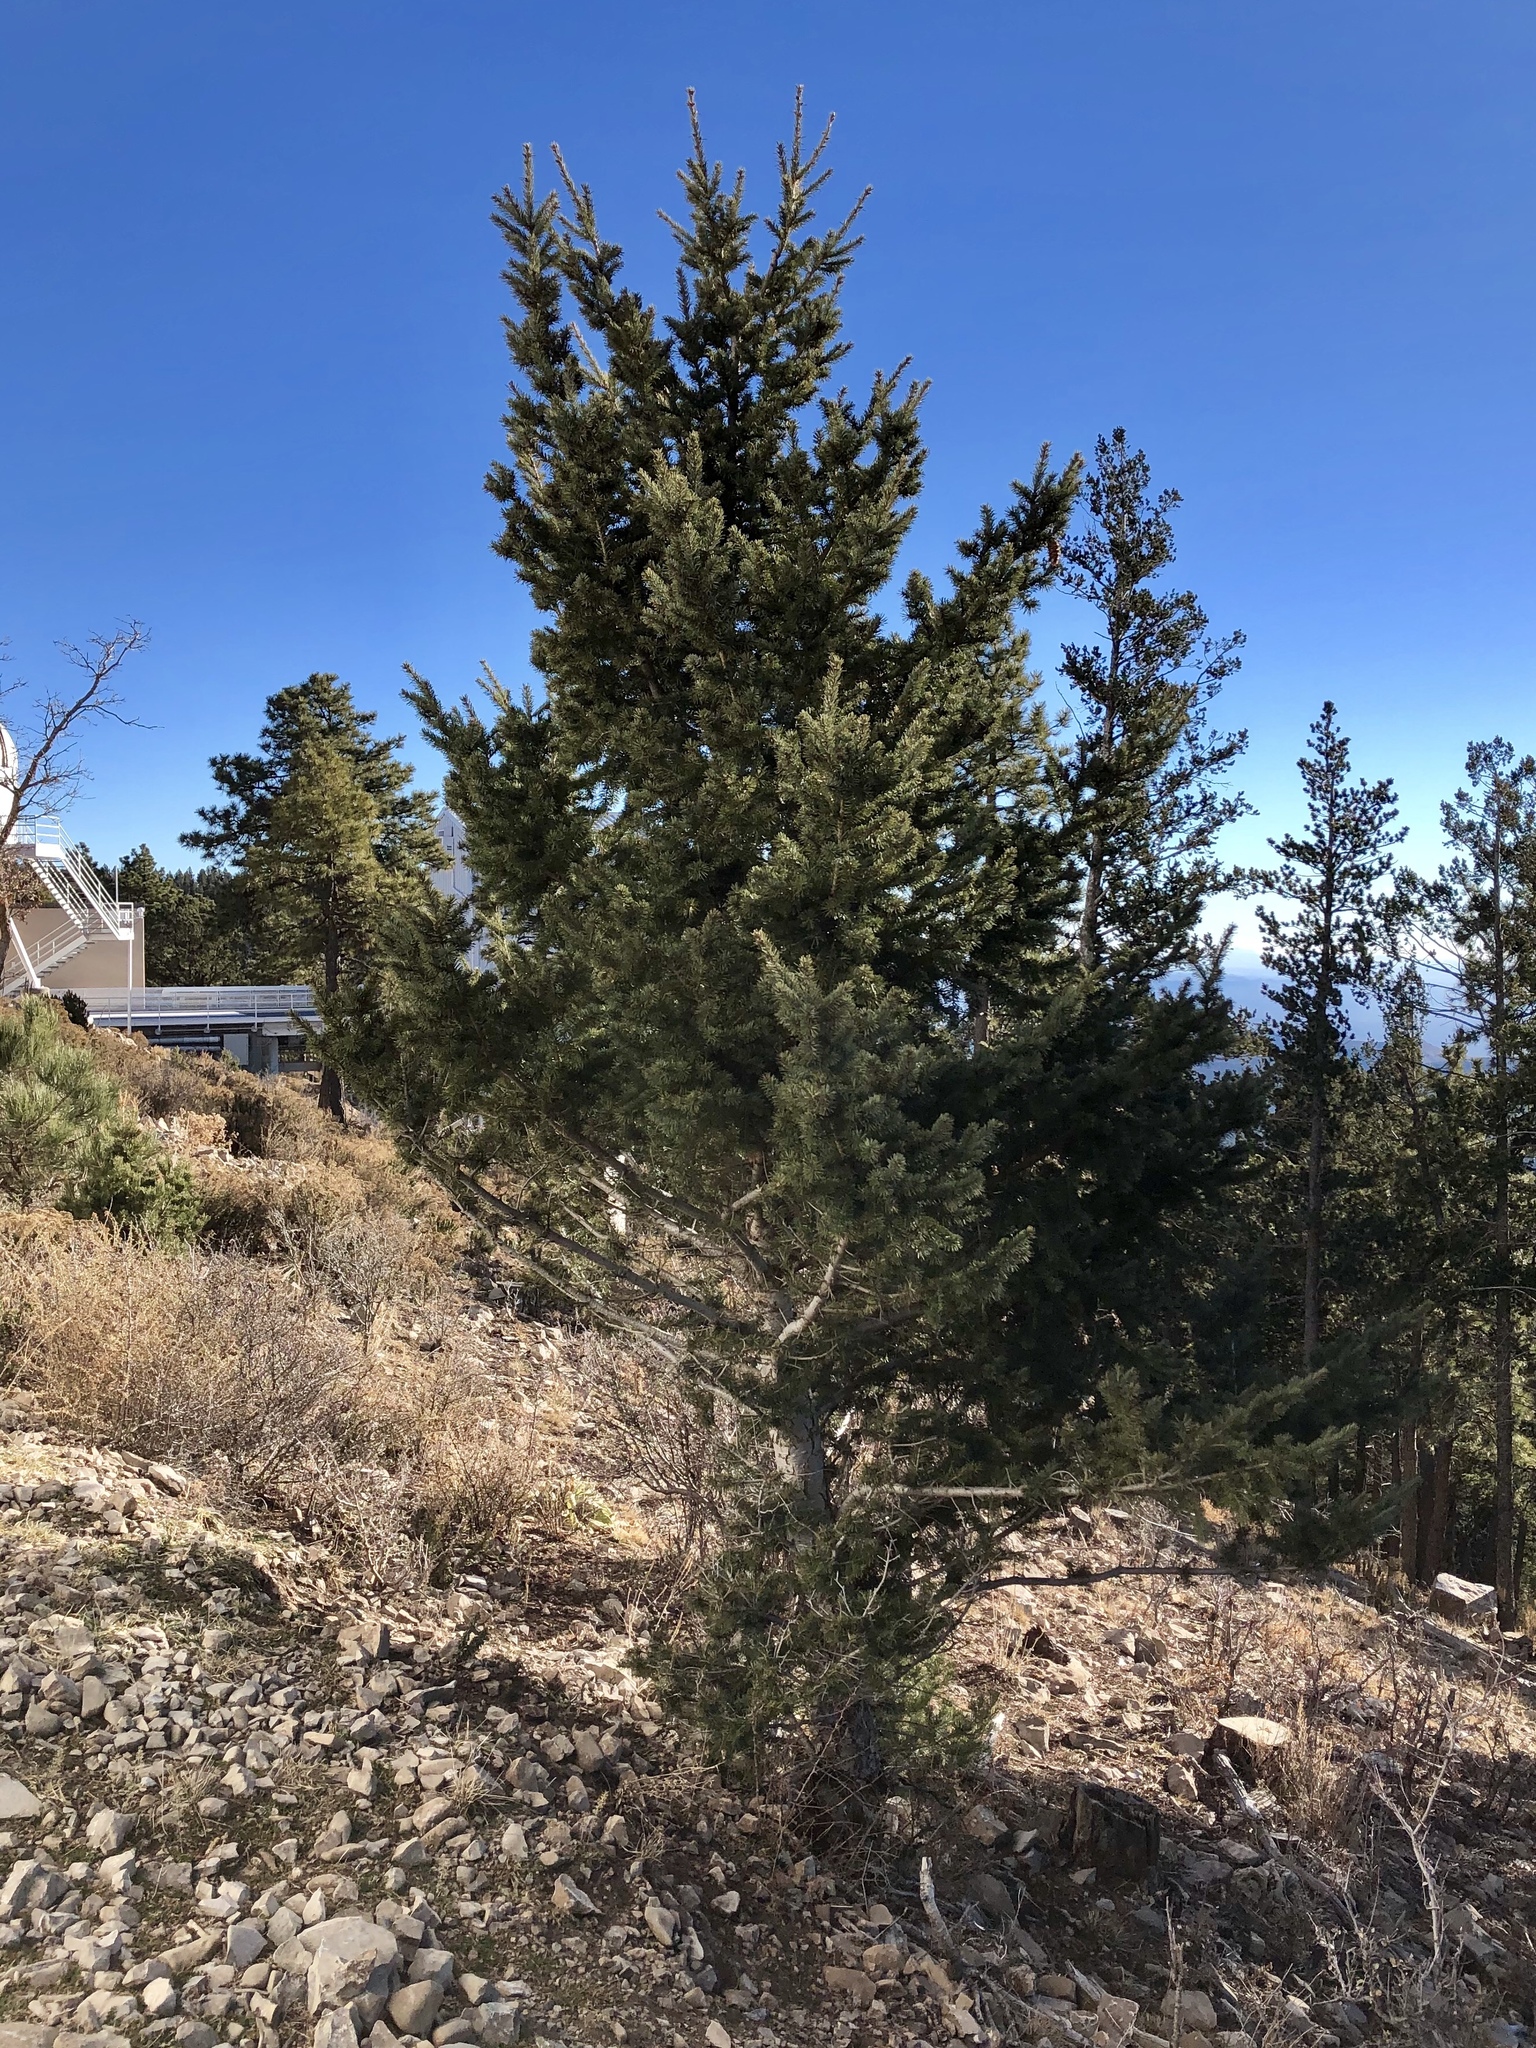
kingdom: Plantae
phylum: Tracheophyta
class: Pinopsida
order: Pinales
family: Pinaceae
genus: Picea
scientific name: Picea engelmannii
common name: Engelmann spruce
